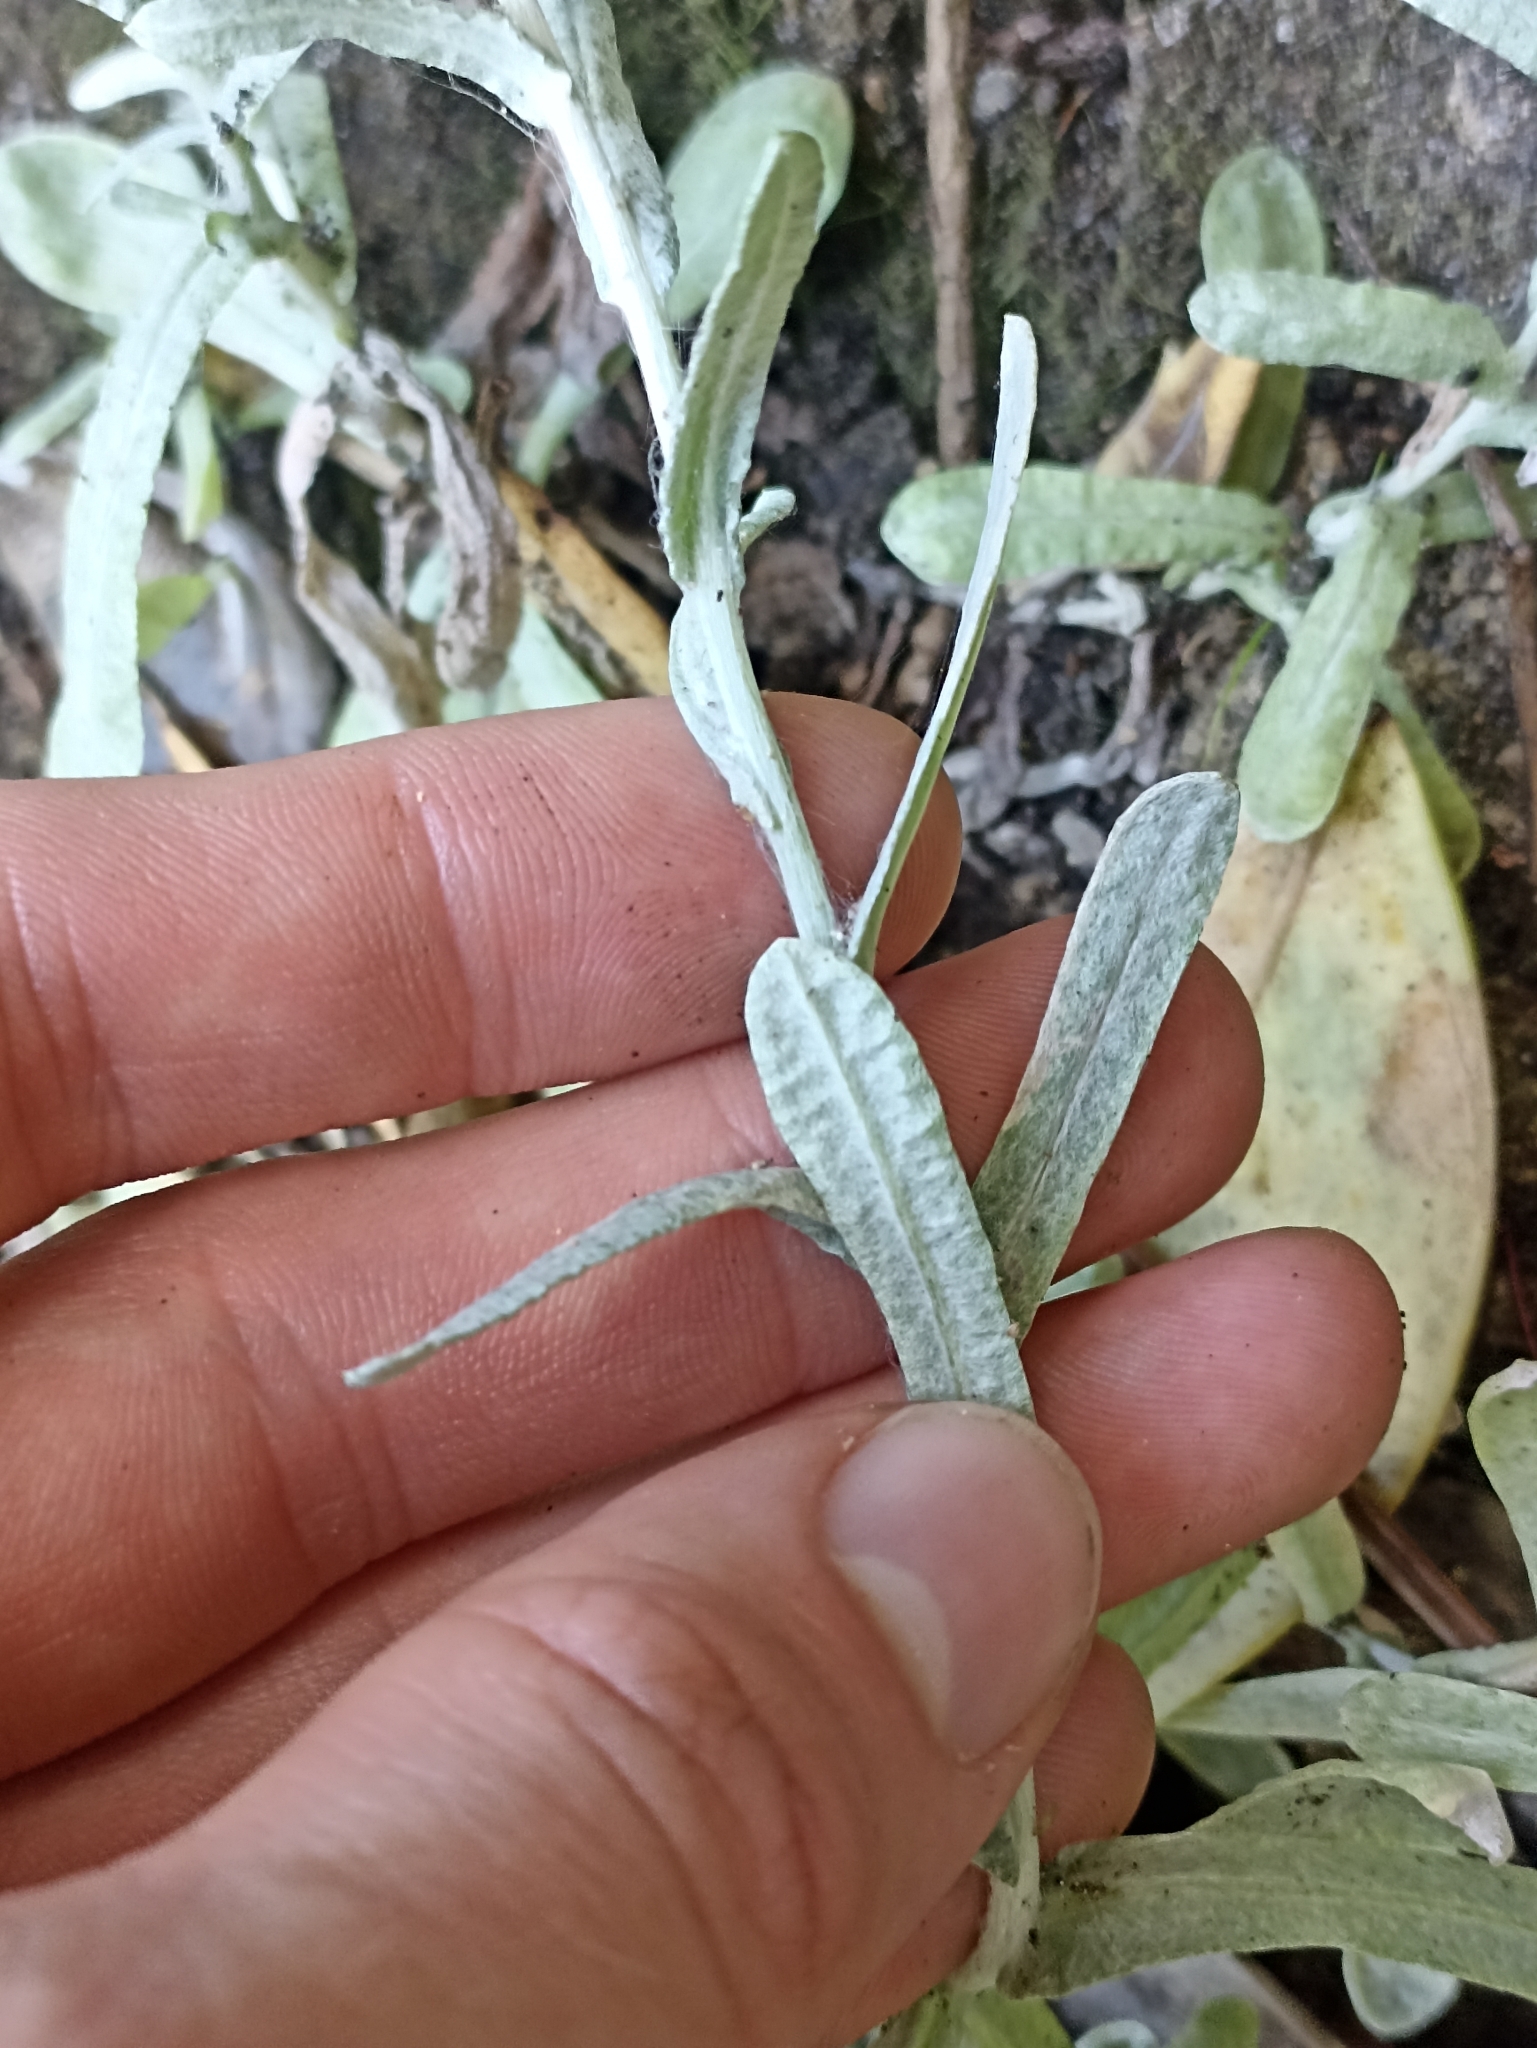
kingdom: Plantae
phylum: Tracheophyta
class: Magnoliopsida
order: Asterales
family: Asteraceae
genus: Helichrysum
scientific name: Helichrysum luteoalbum
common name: Daisy
